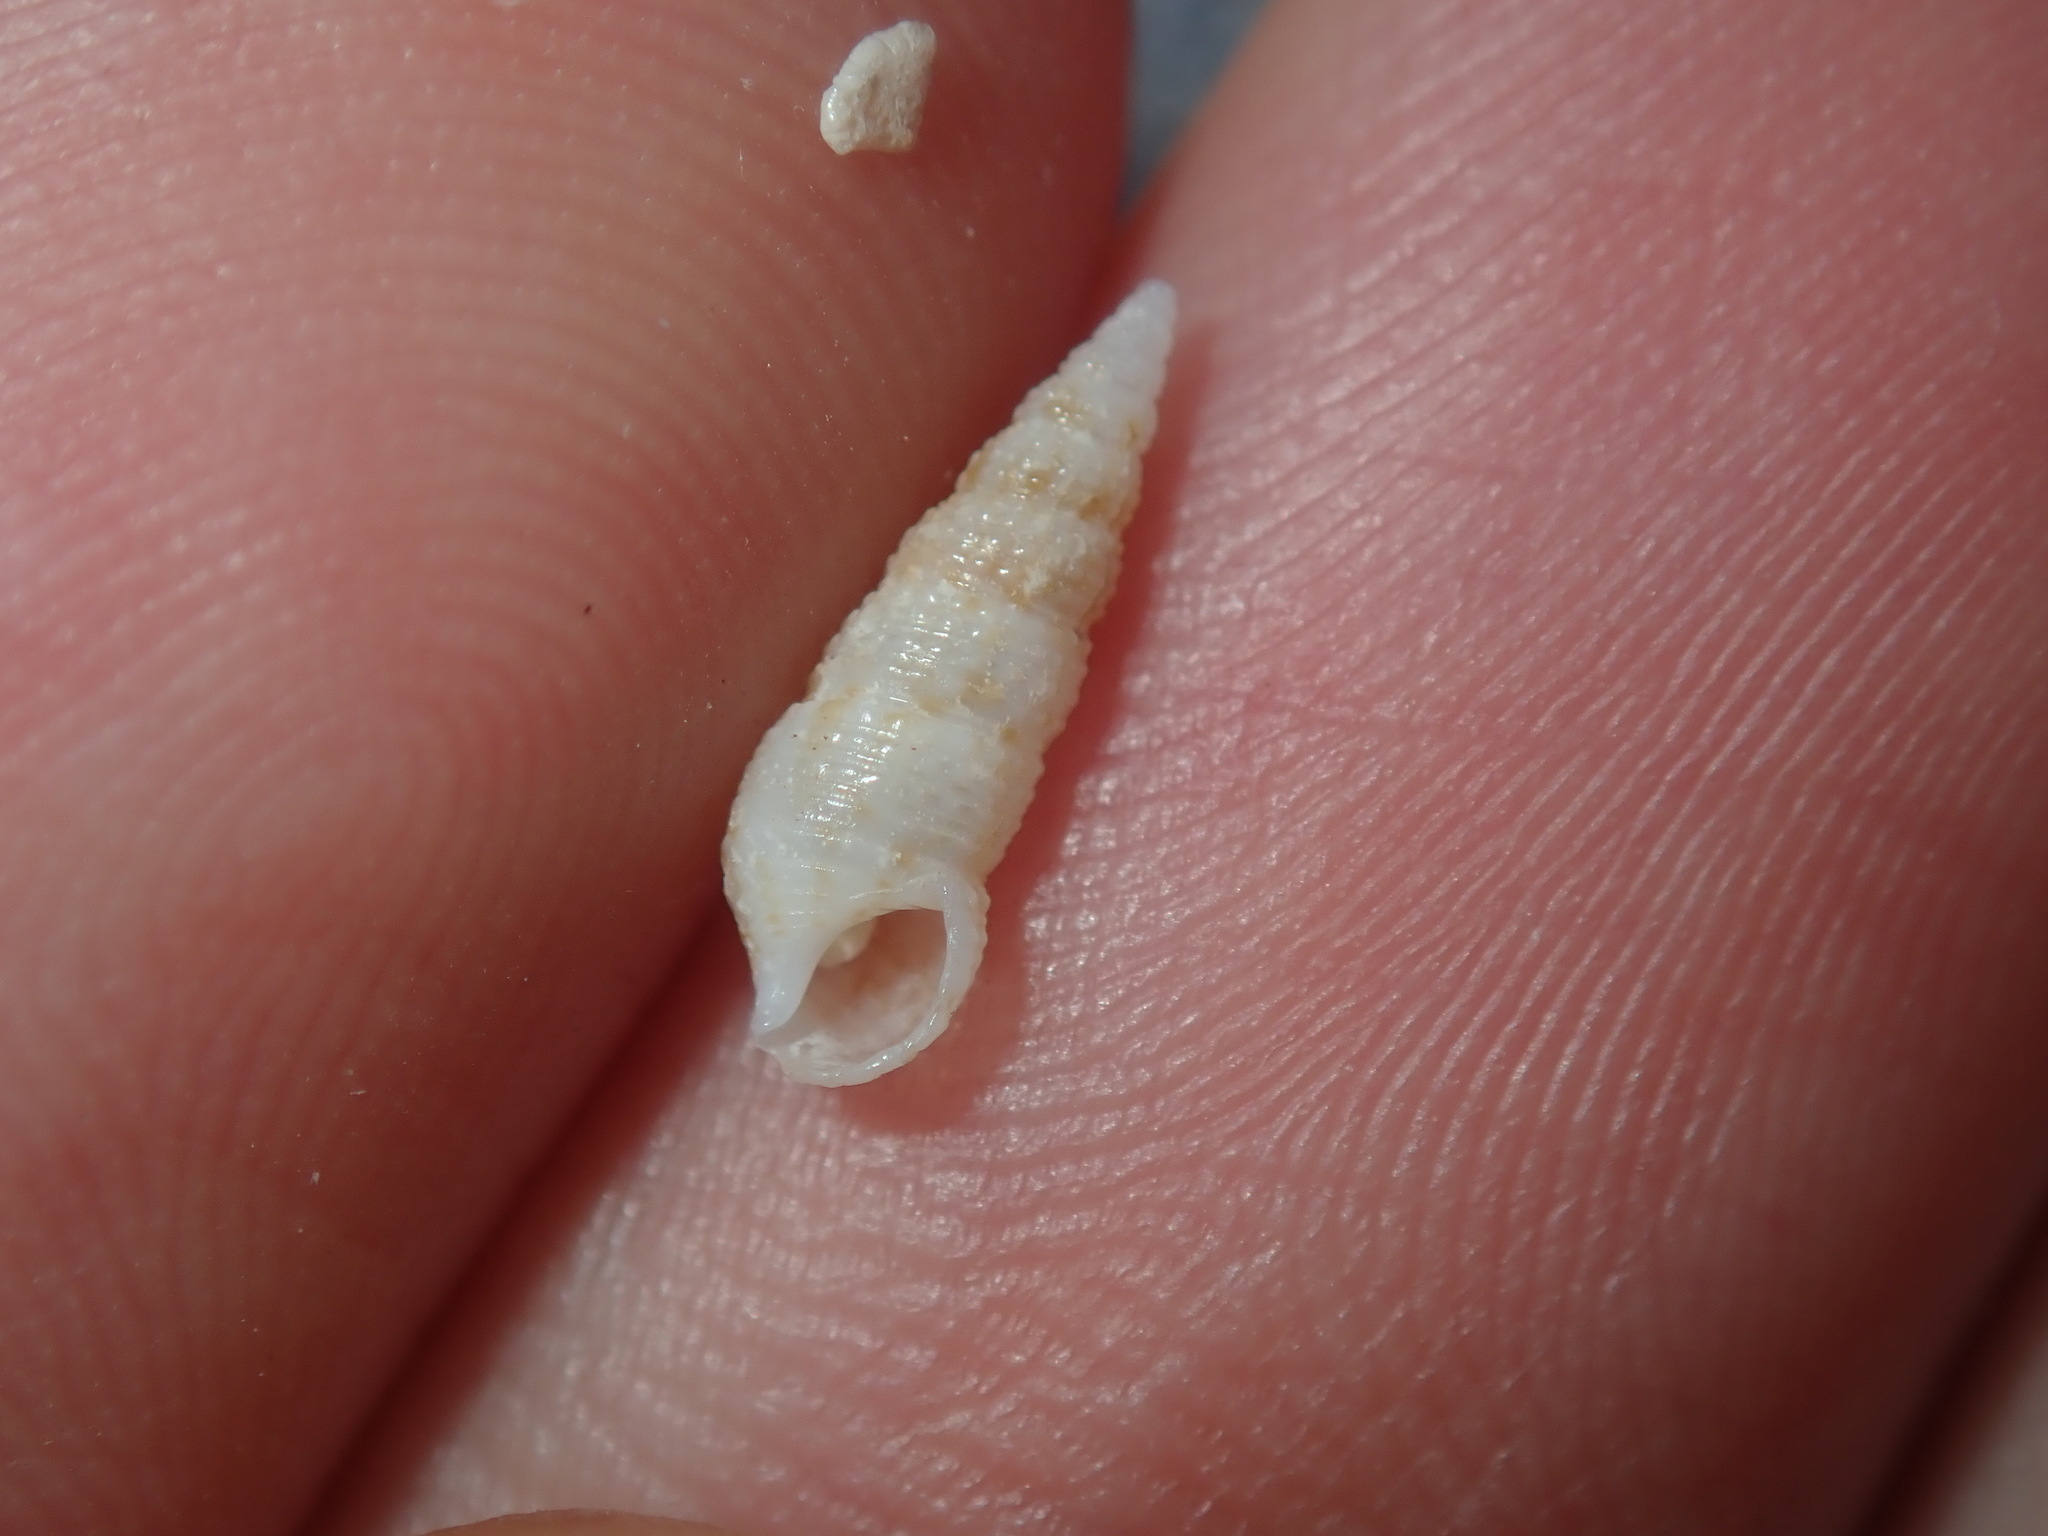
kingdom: Animalia
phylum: Mollusca
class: Gastropoda
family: Cerithiidae
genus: Cacozeliana
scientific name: Cacozeliana granarium
